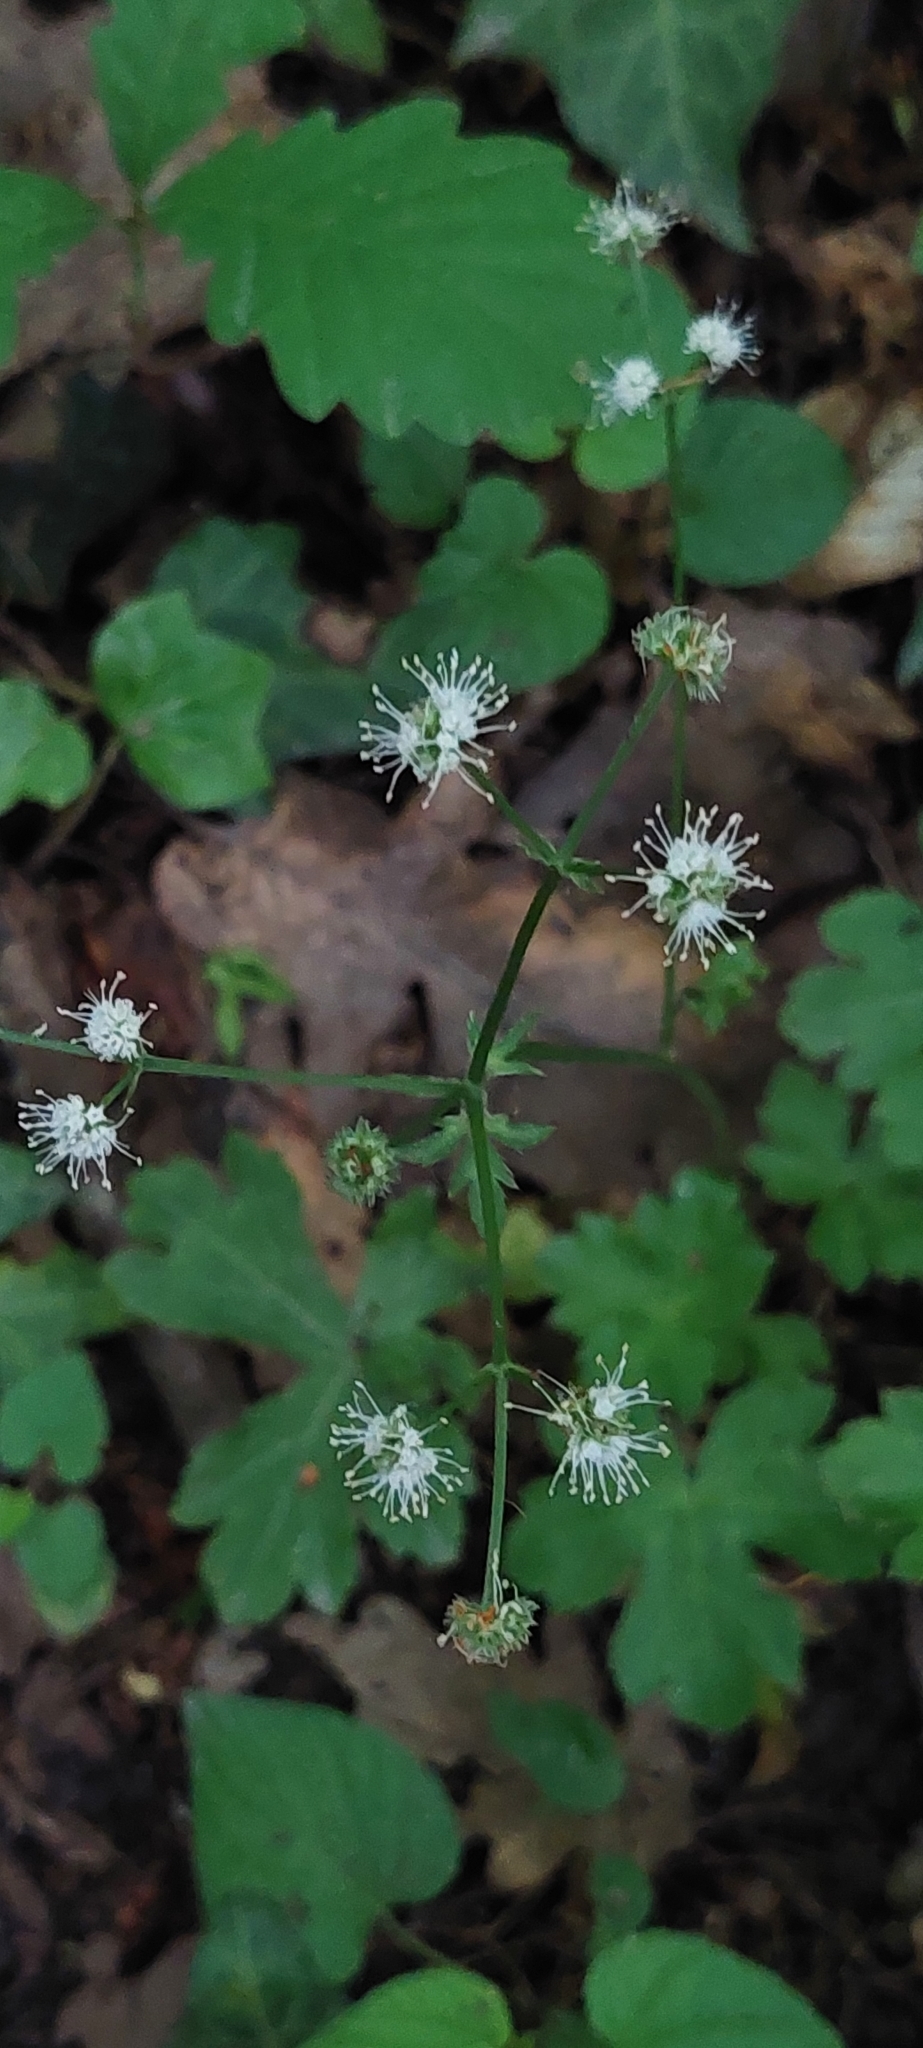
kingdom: Plantae
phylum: Tracheophyta
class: Magnoliopsida
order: Apiales
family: Apiaceae
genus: Sanicula
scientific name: Sanicula europaea
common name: Sanicle
